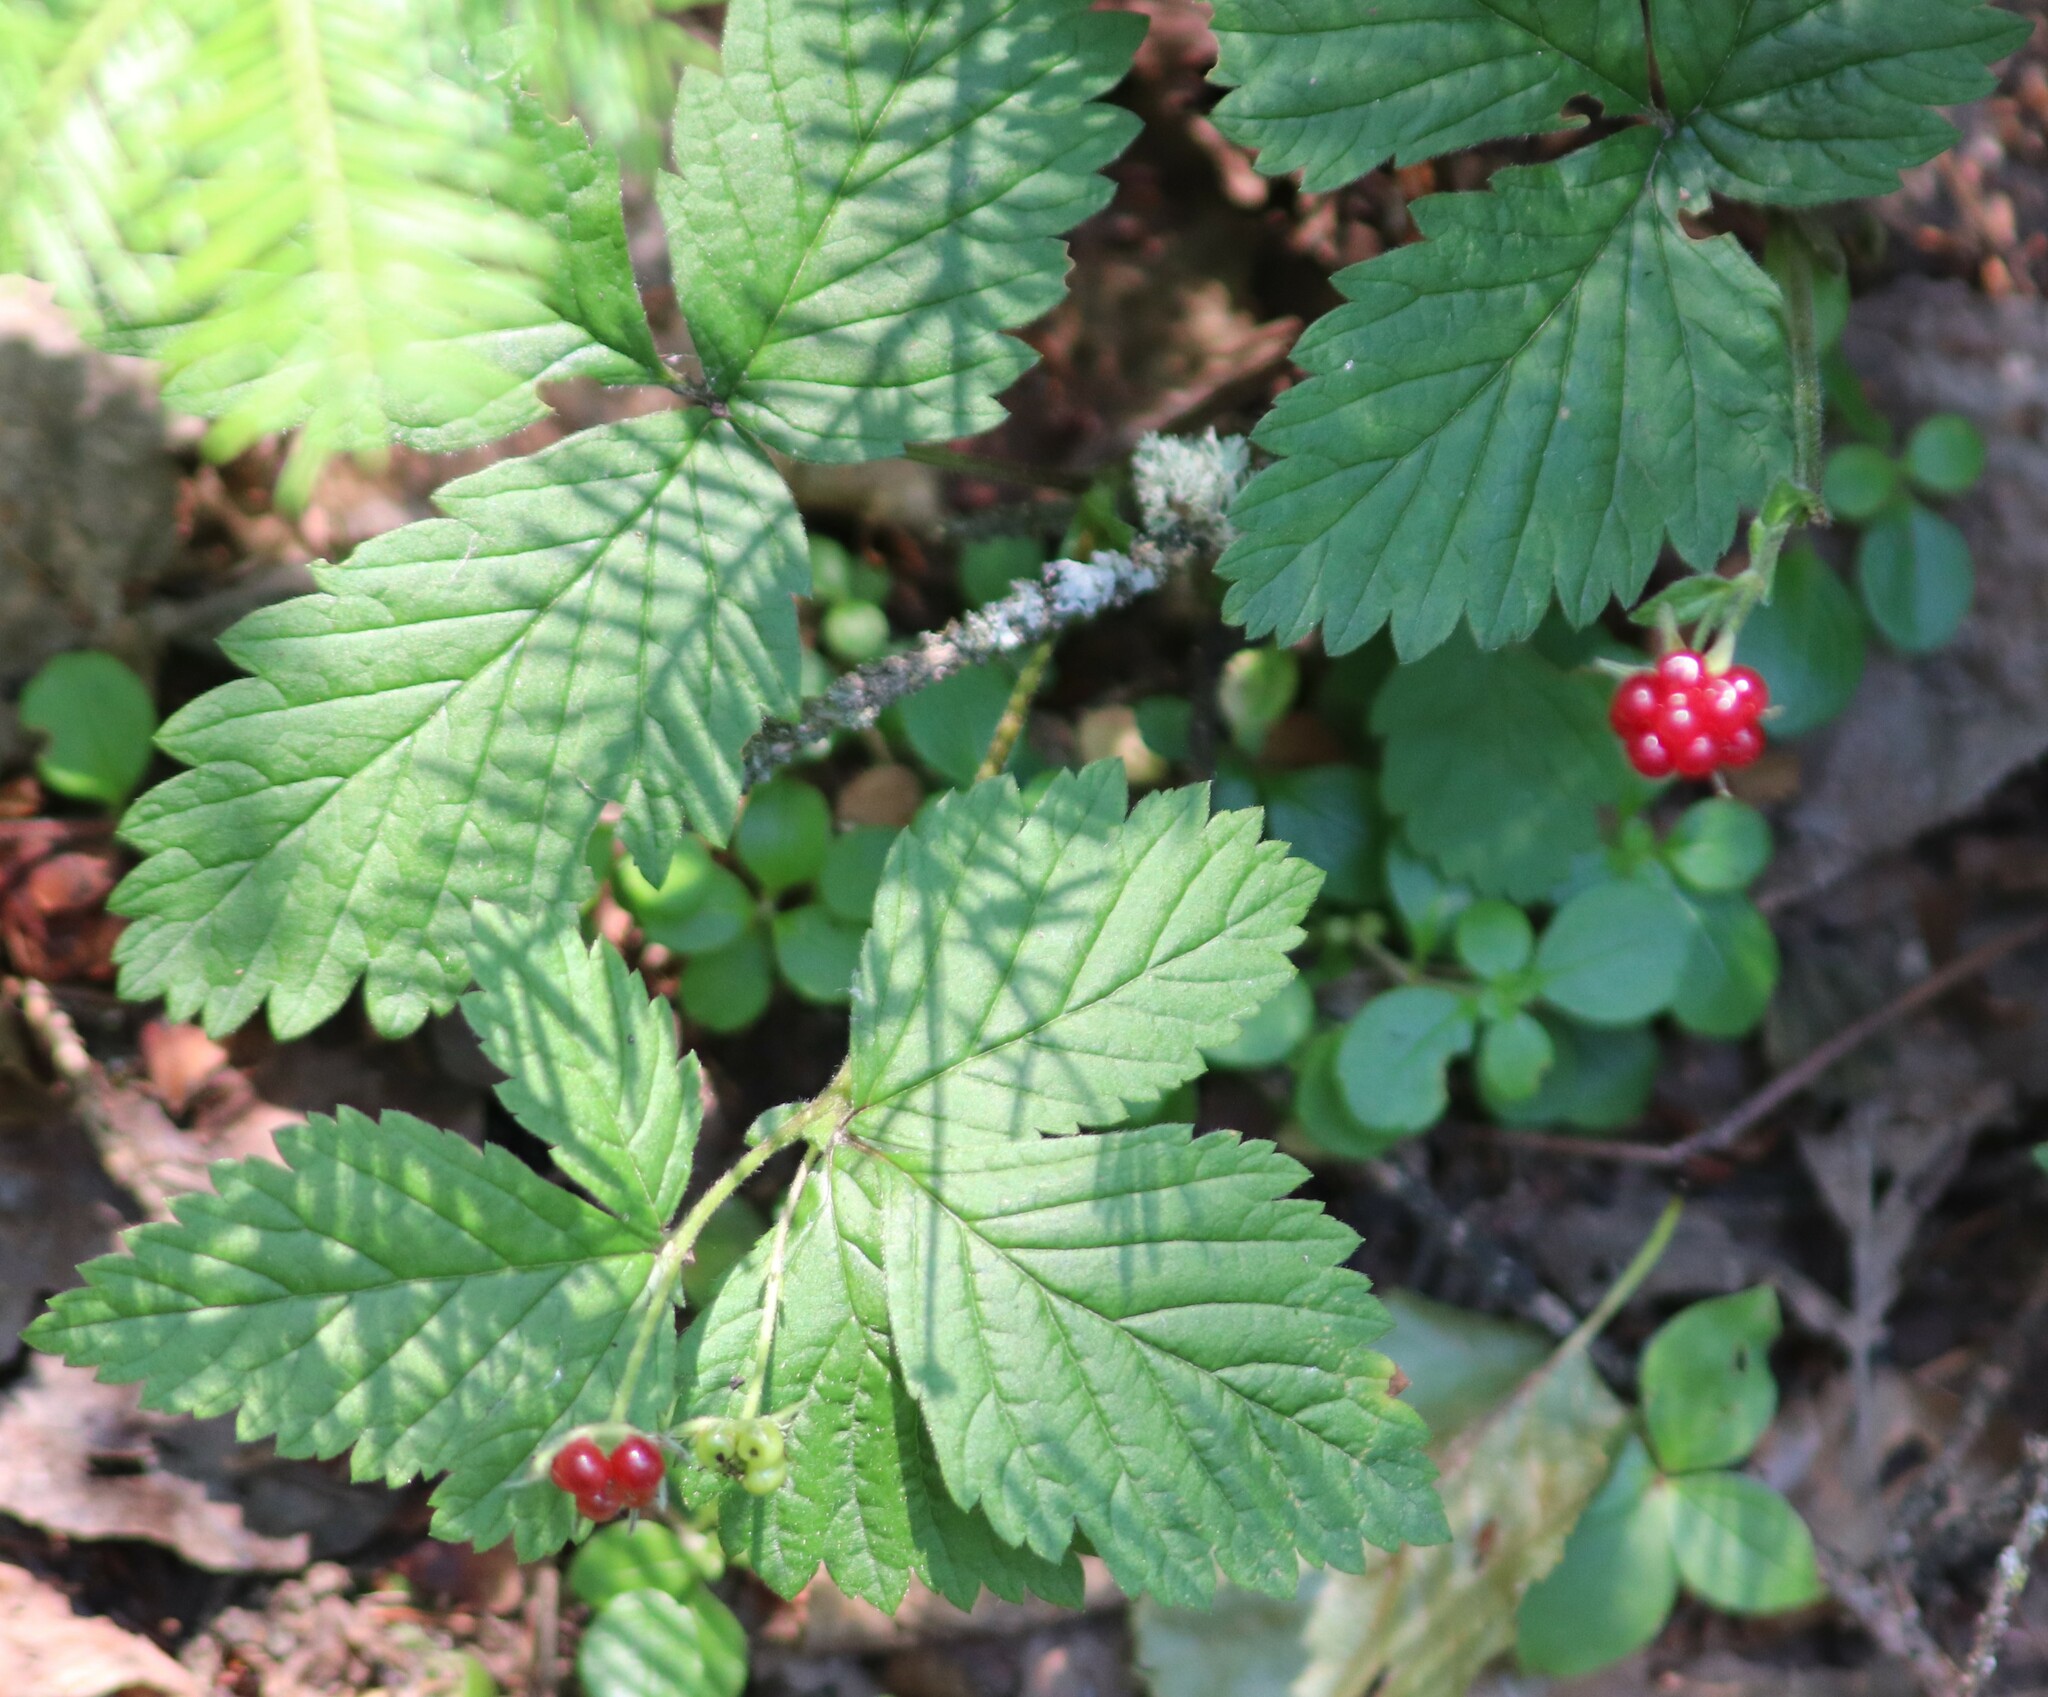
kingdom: Plantae
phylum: Tracheophyta
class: Magnoliopsida
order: Rosales
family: Rosaceae
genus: Rubus
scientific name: Rubus pubescens
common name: Dwarf raspberry
